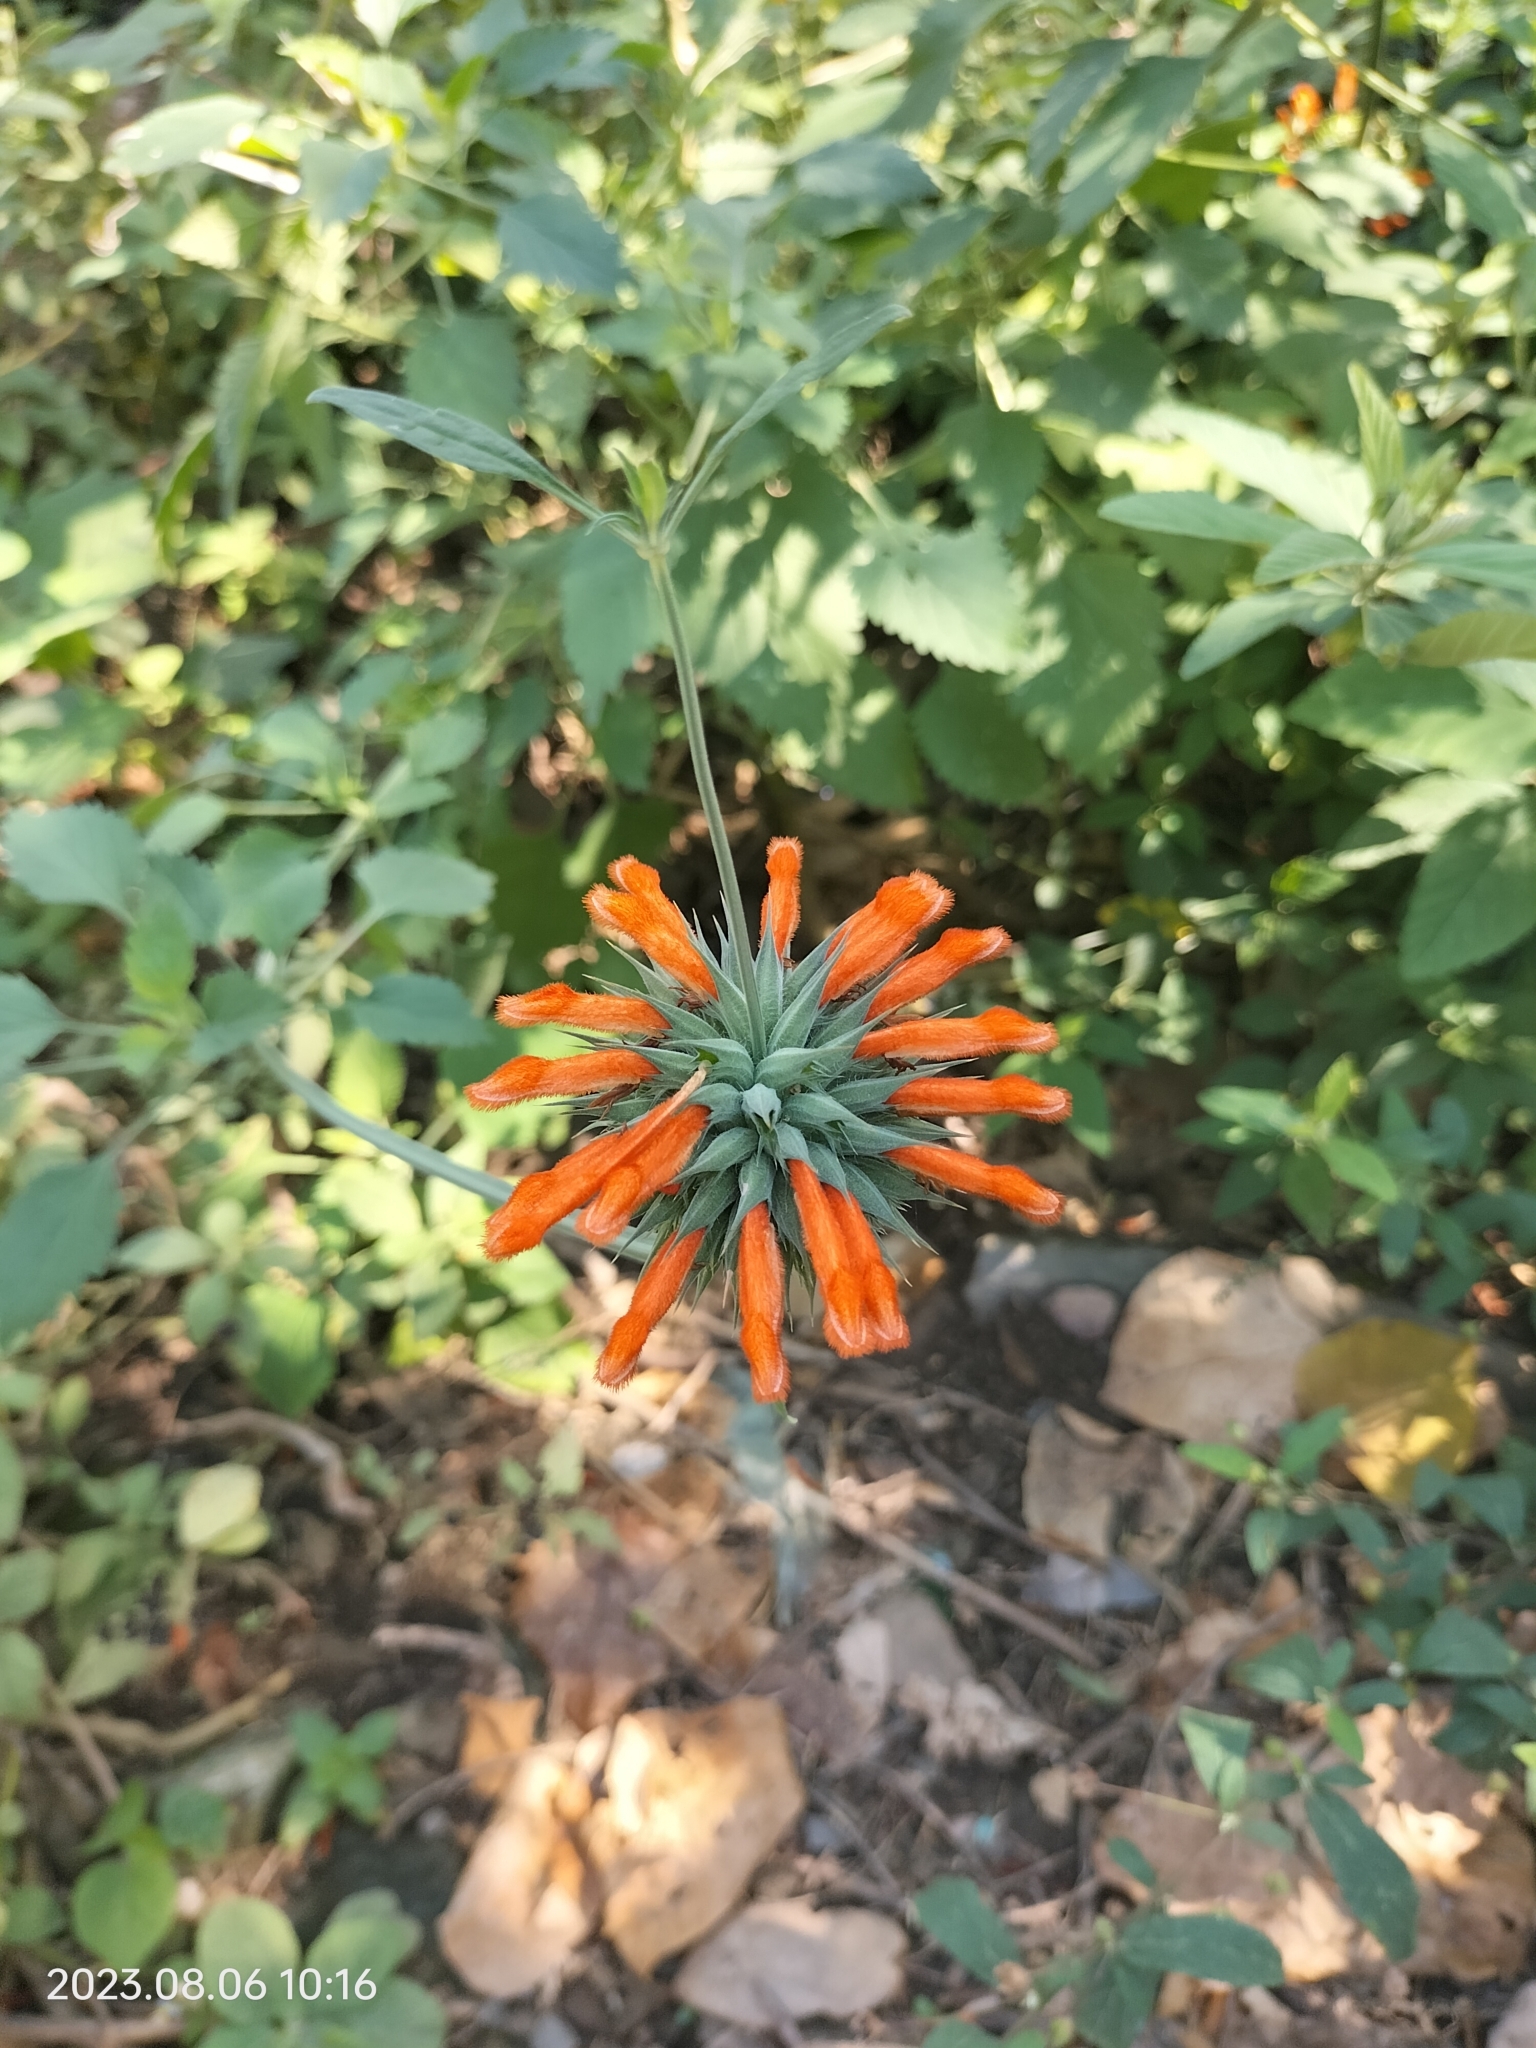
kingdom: Plantae
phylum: Tracheophyta
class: Magnoliopsida
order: Lamiales
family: Lamiaceae
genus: Leonotis
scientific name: Leonotis nepetifolia
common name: Christmas candlestick
